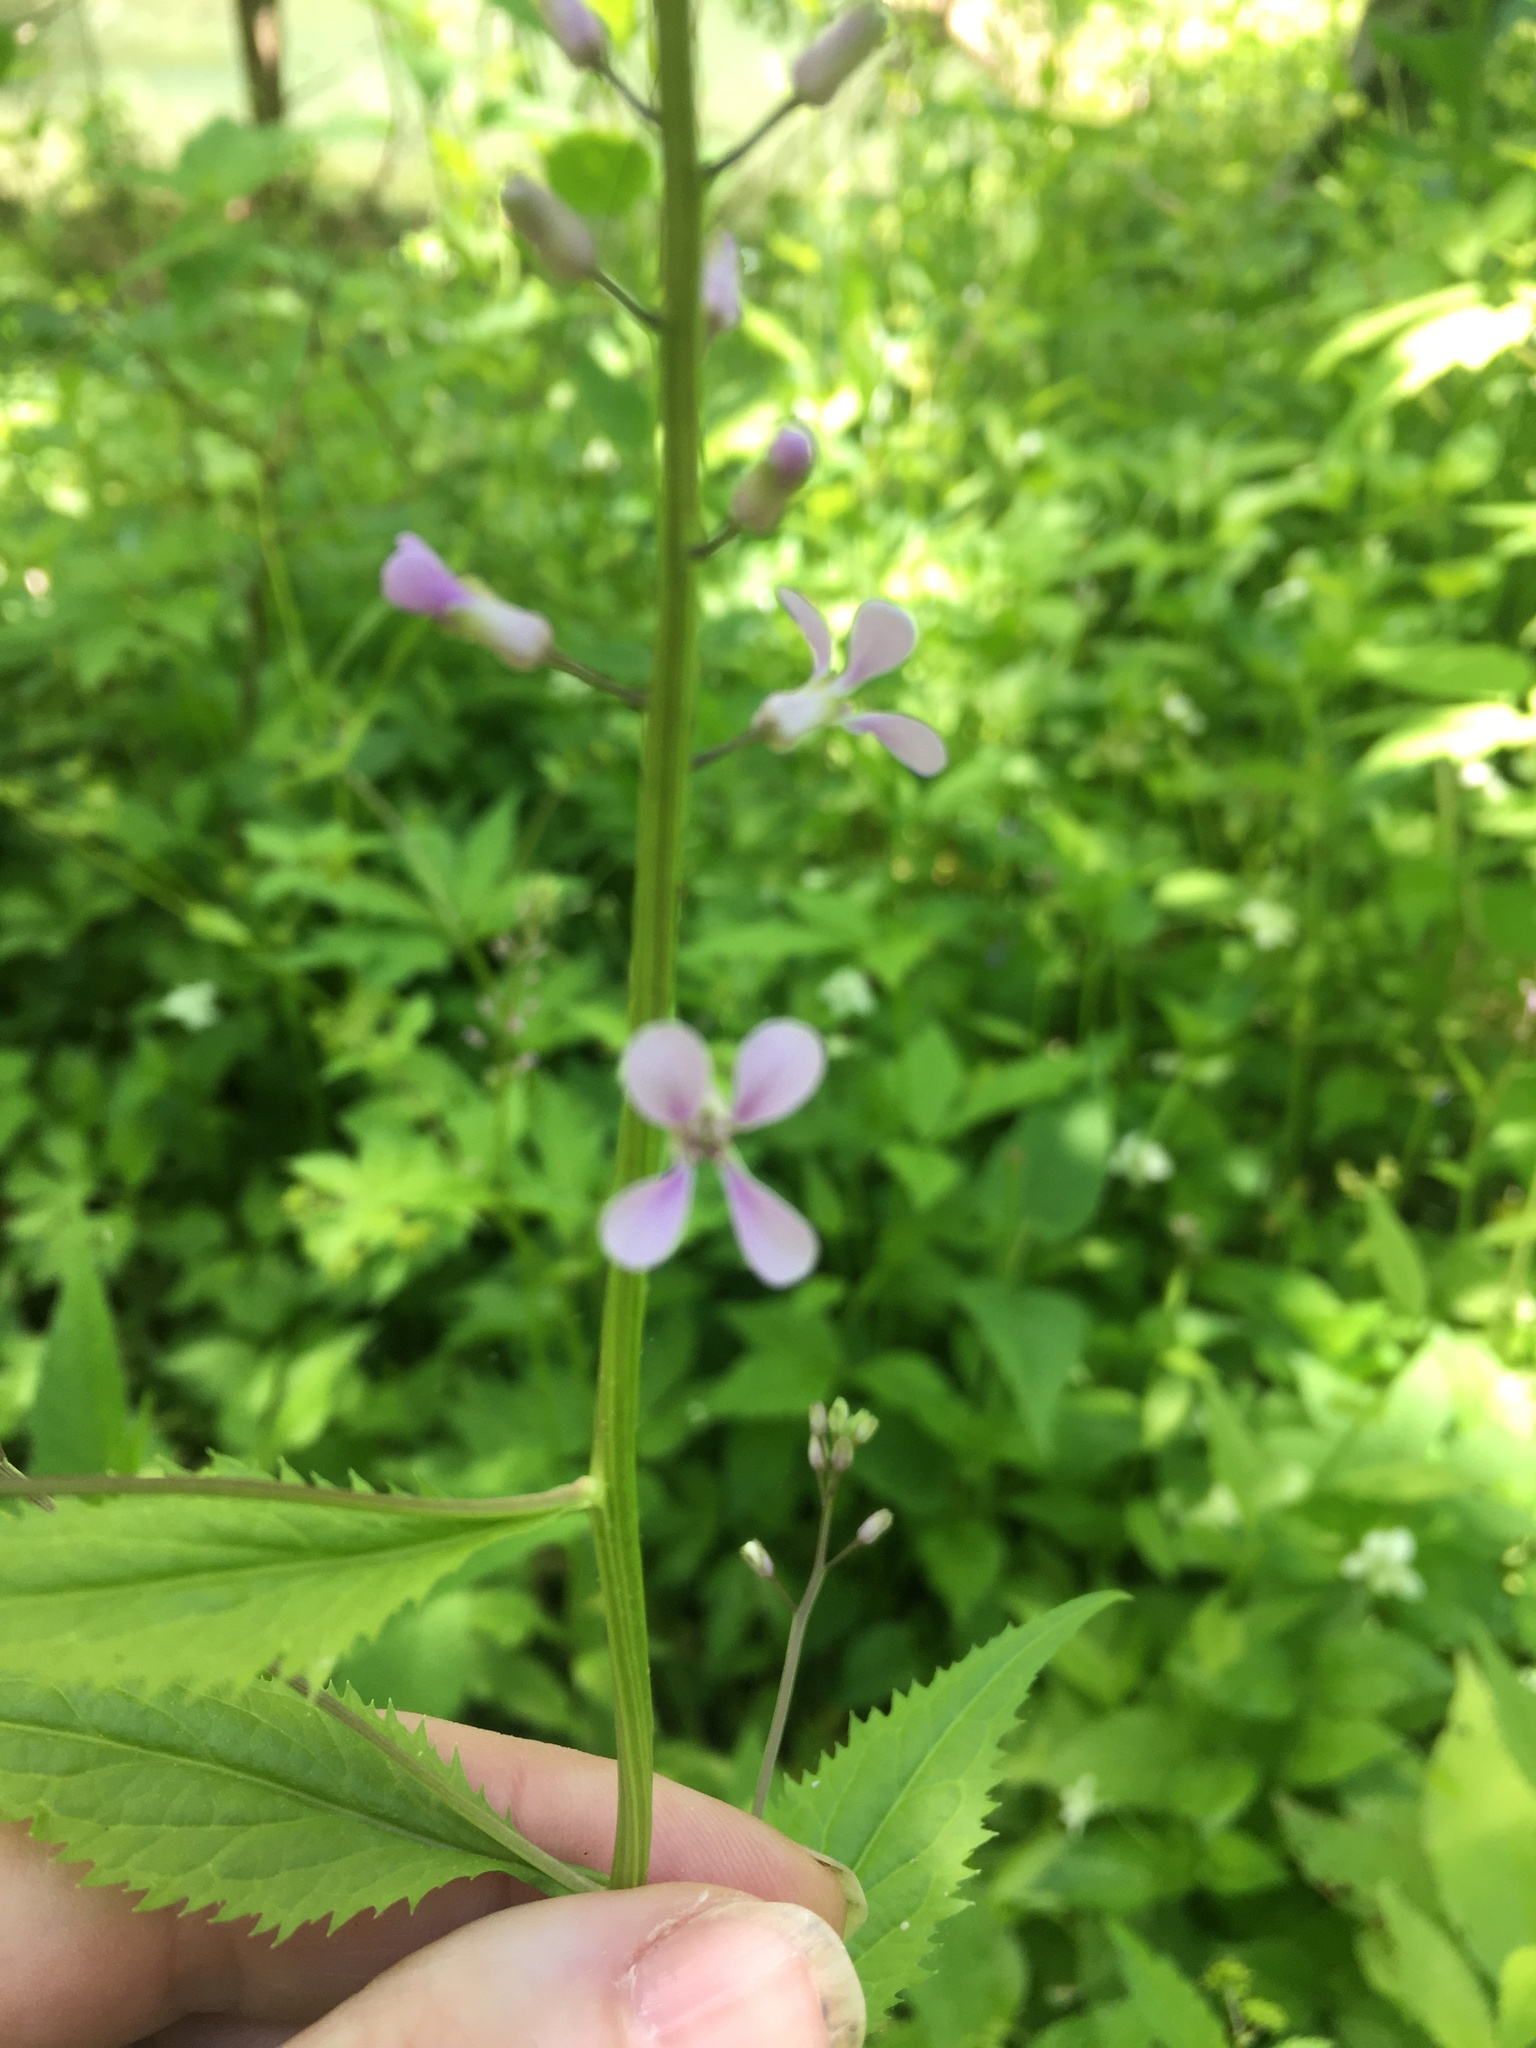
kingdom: Plantae
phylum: Tracheophyta
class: Magnoliopsida
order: Brassicales
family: Brassicaceae
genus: Iodanthus
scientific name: Iodanthus pinnatifidus
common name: Violet rocket
